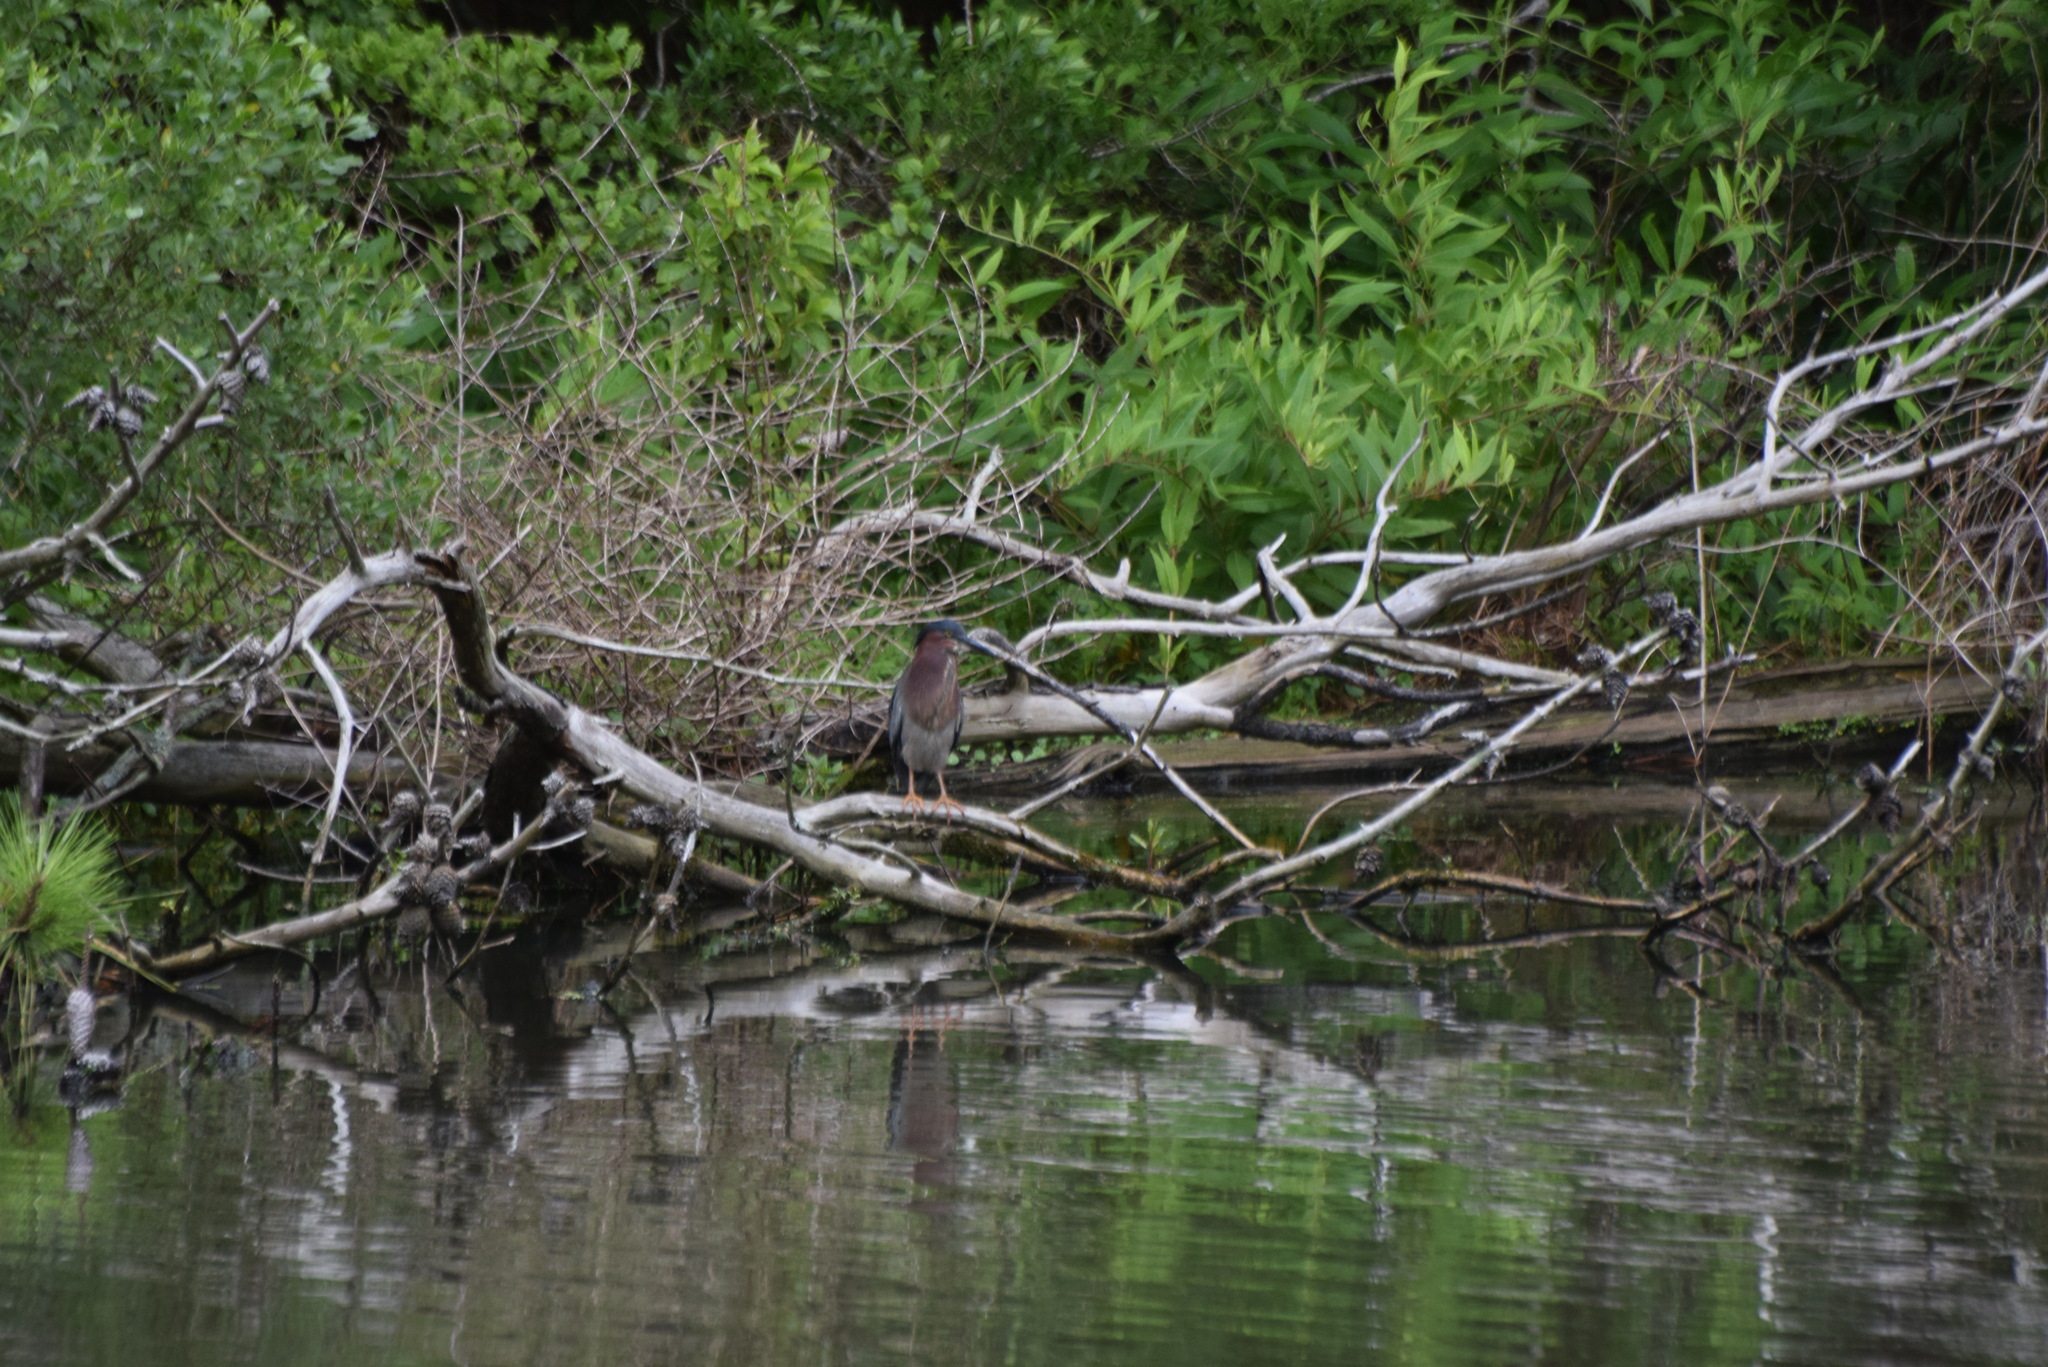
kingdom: Animalia
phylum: Chordata
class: Aves
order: Pelecaniformes
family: Ardeidae
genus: Butorides
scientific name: Butorides virescens
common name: Green heron
